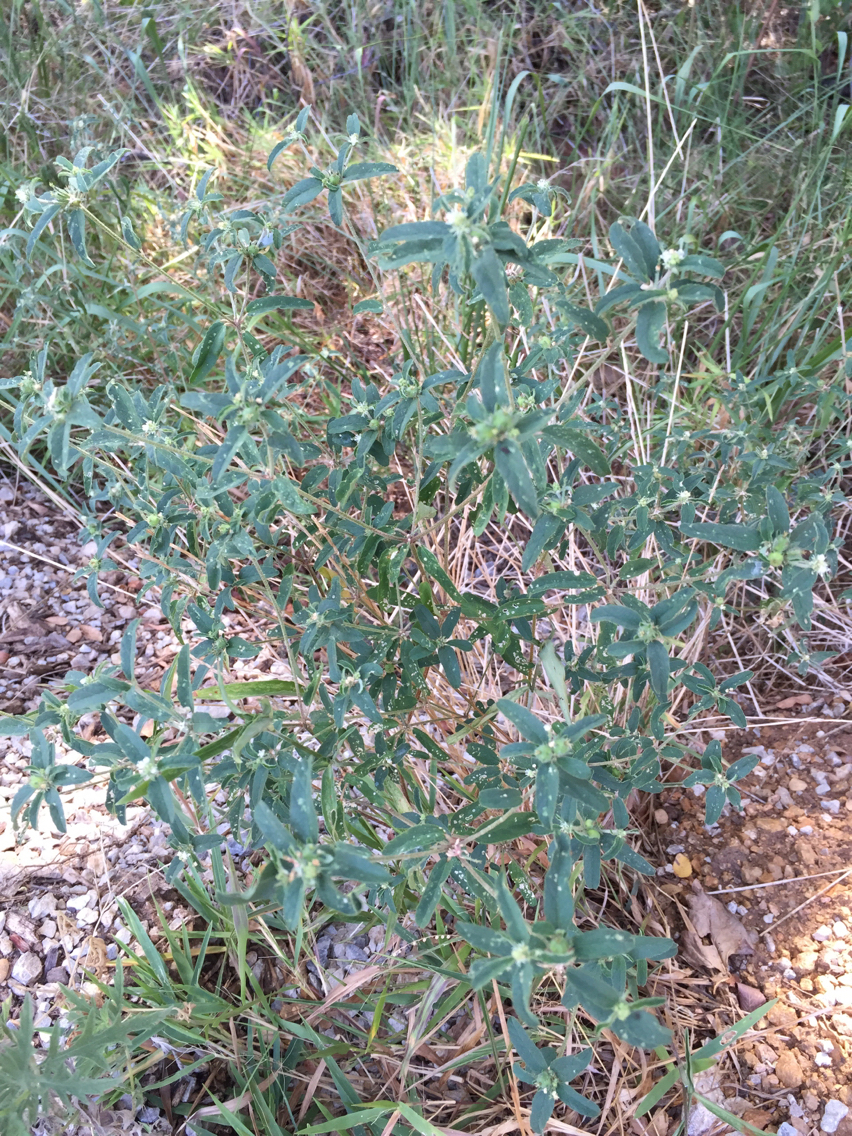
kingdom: Plantae
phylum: Tracheophyta
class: Magnoliopsida
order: Malpighiales
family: Euphorbiaceae
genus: Croton
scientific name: Croton glandulosus
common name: Tropic croton
